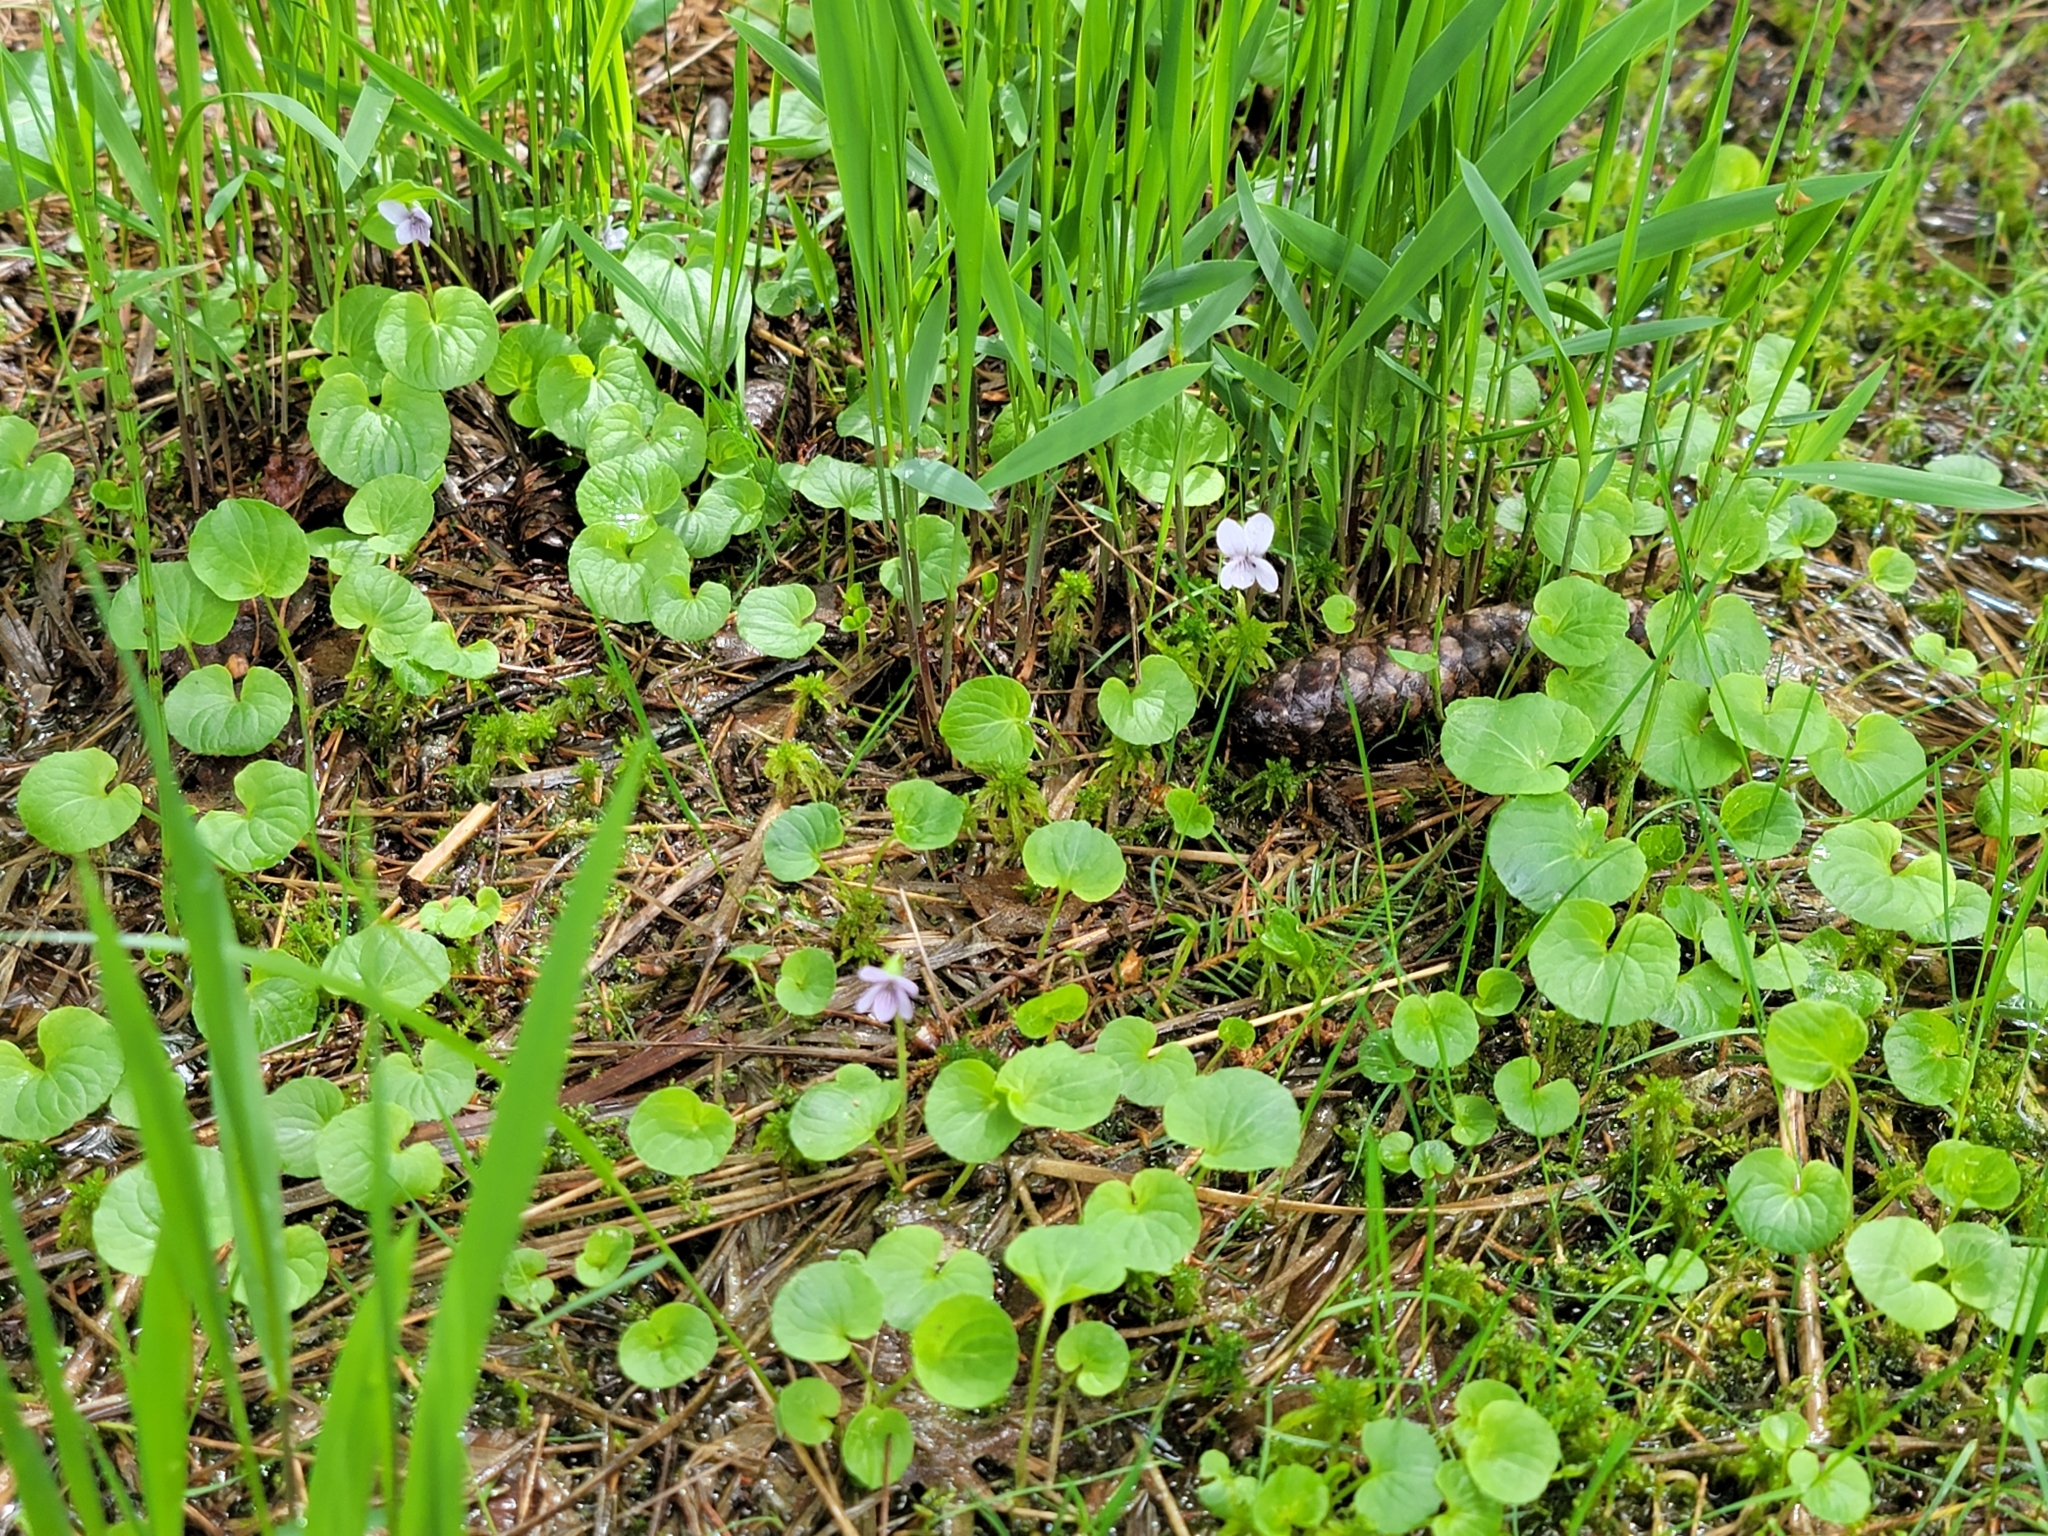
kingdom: Plantae
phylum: Tracheophyta
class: Magnoliopsida
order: Malpighiales
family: Violaceae
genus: Viola
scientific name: Viola palustris
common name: Marsh violet
